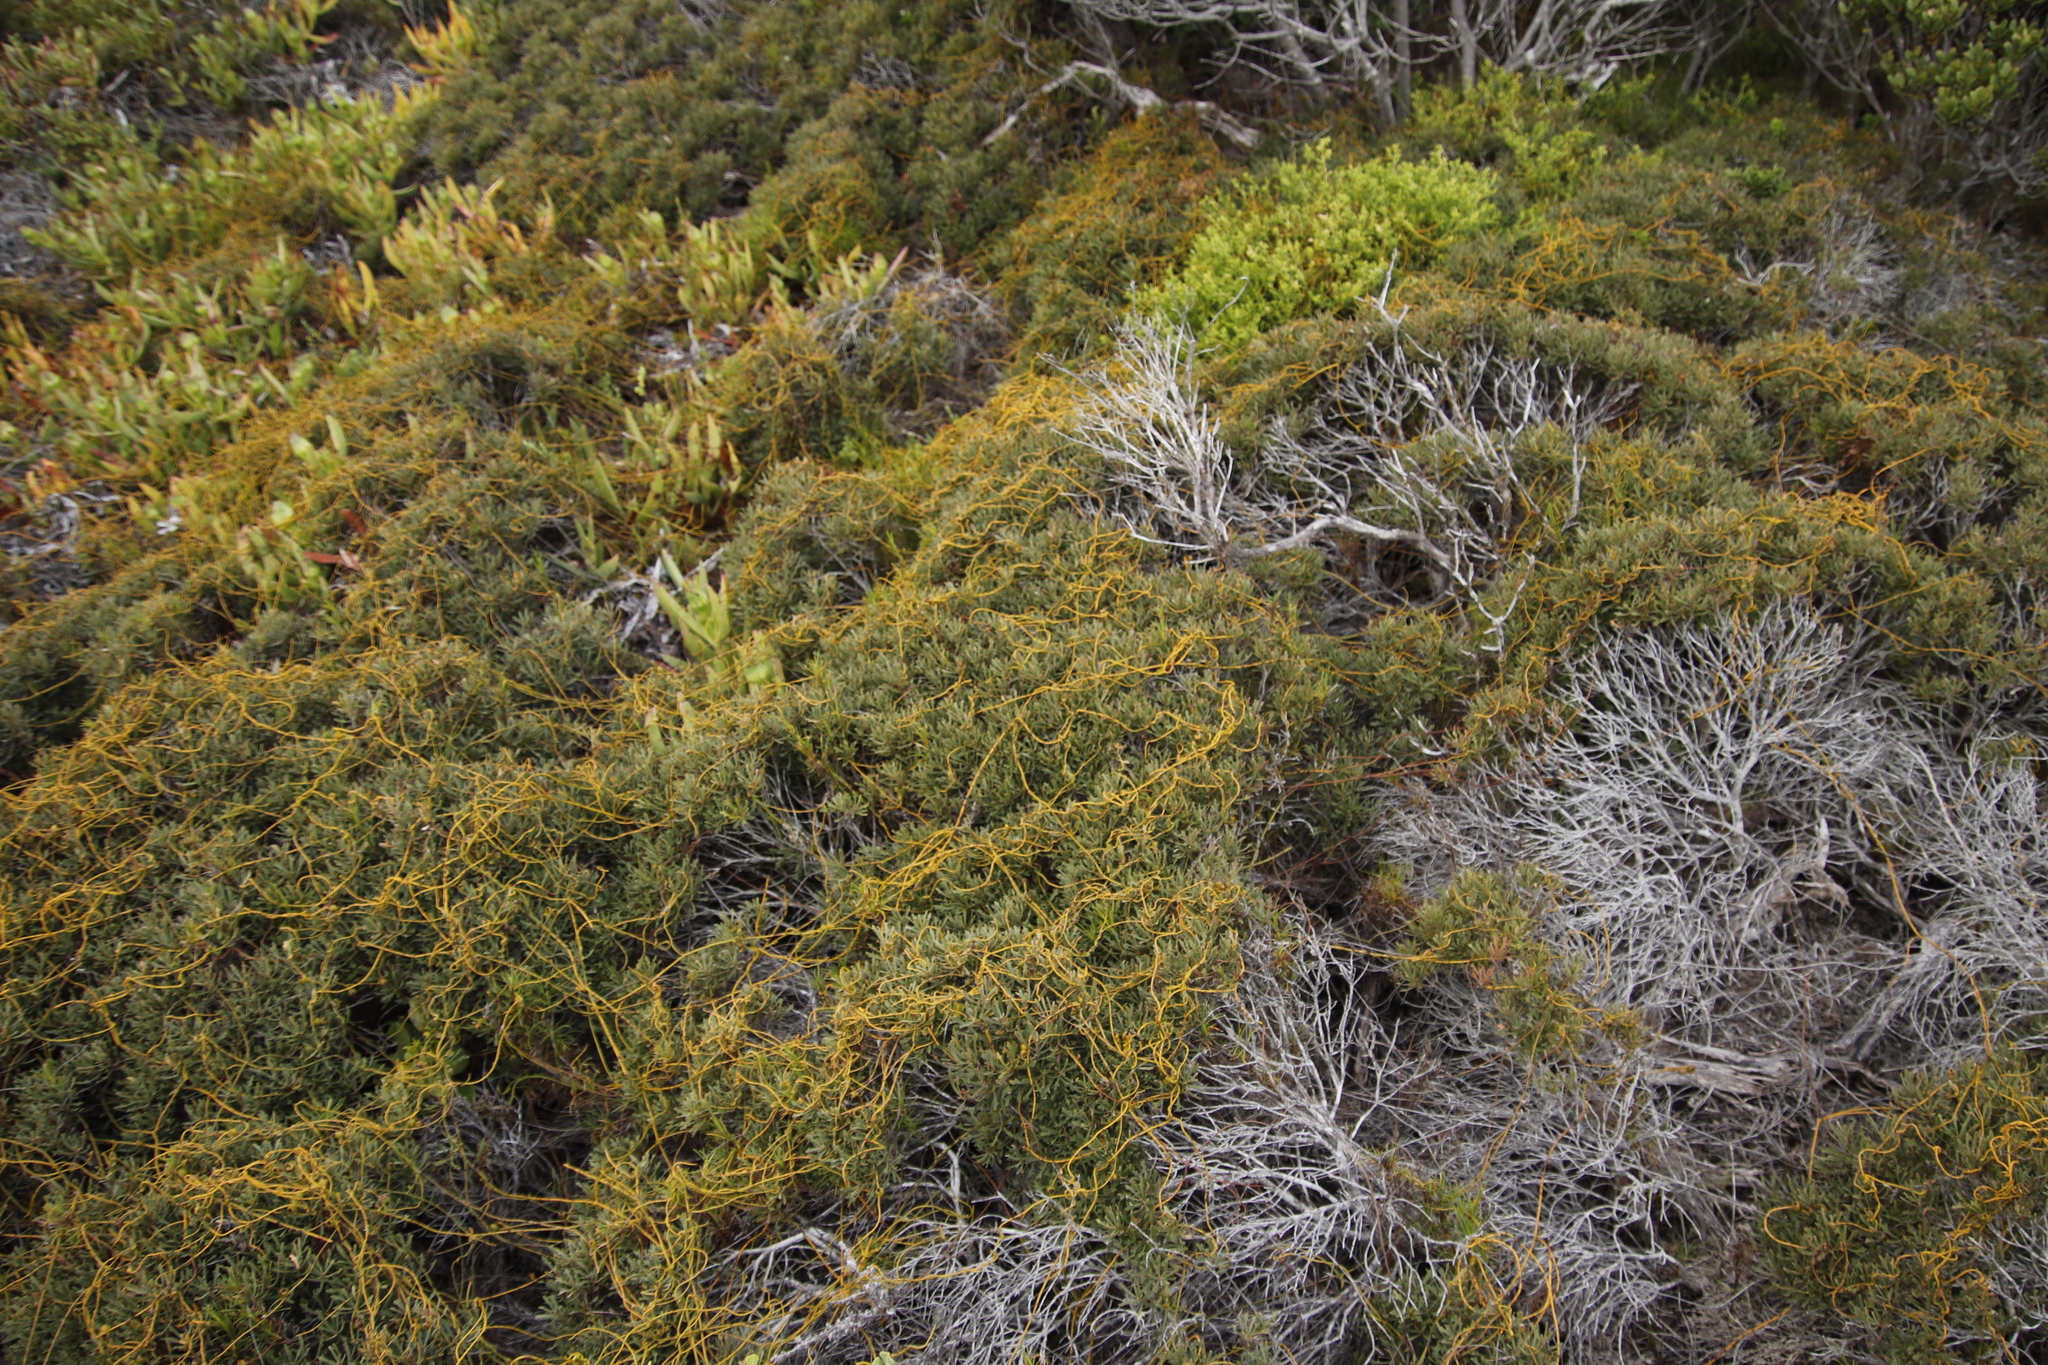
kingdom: Plantae
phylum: Tracheophyta
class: Magnoliopsida
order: Laurales
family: Lauraceae
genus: Cassytha
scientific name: Cassytha ciliolata
